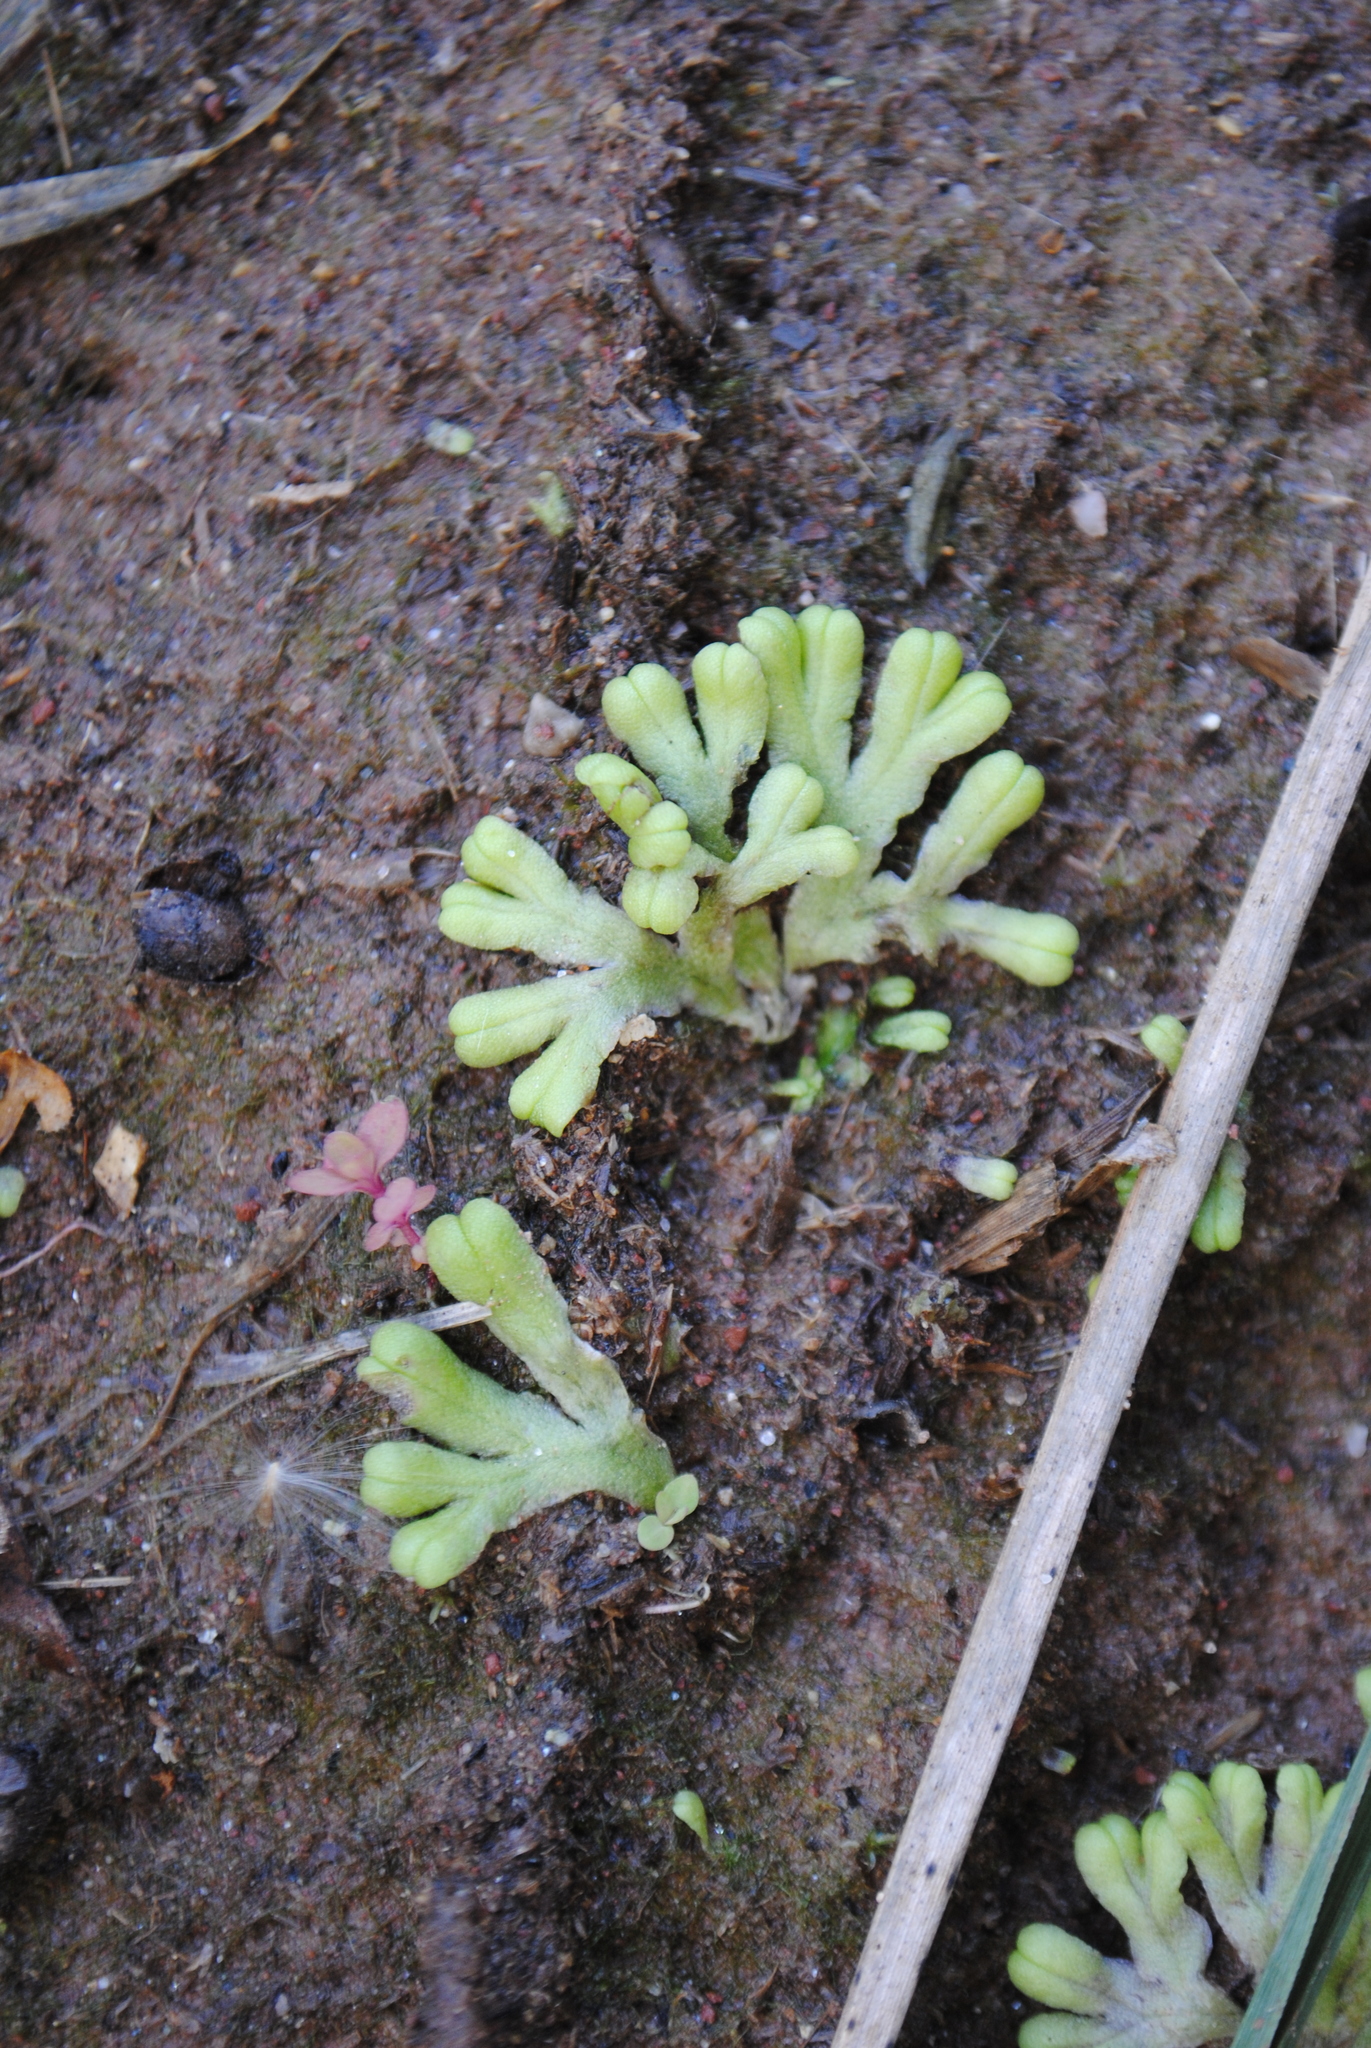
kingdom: Plantae
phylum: Marchantiophyta
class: Marchantiopsida
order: Marchantiales
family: Ricciaceae
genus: Ricciocarpos
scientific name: Ricciocarpos natans
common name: Purple-fringed liverwort
